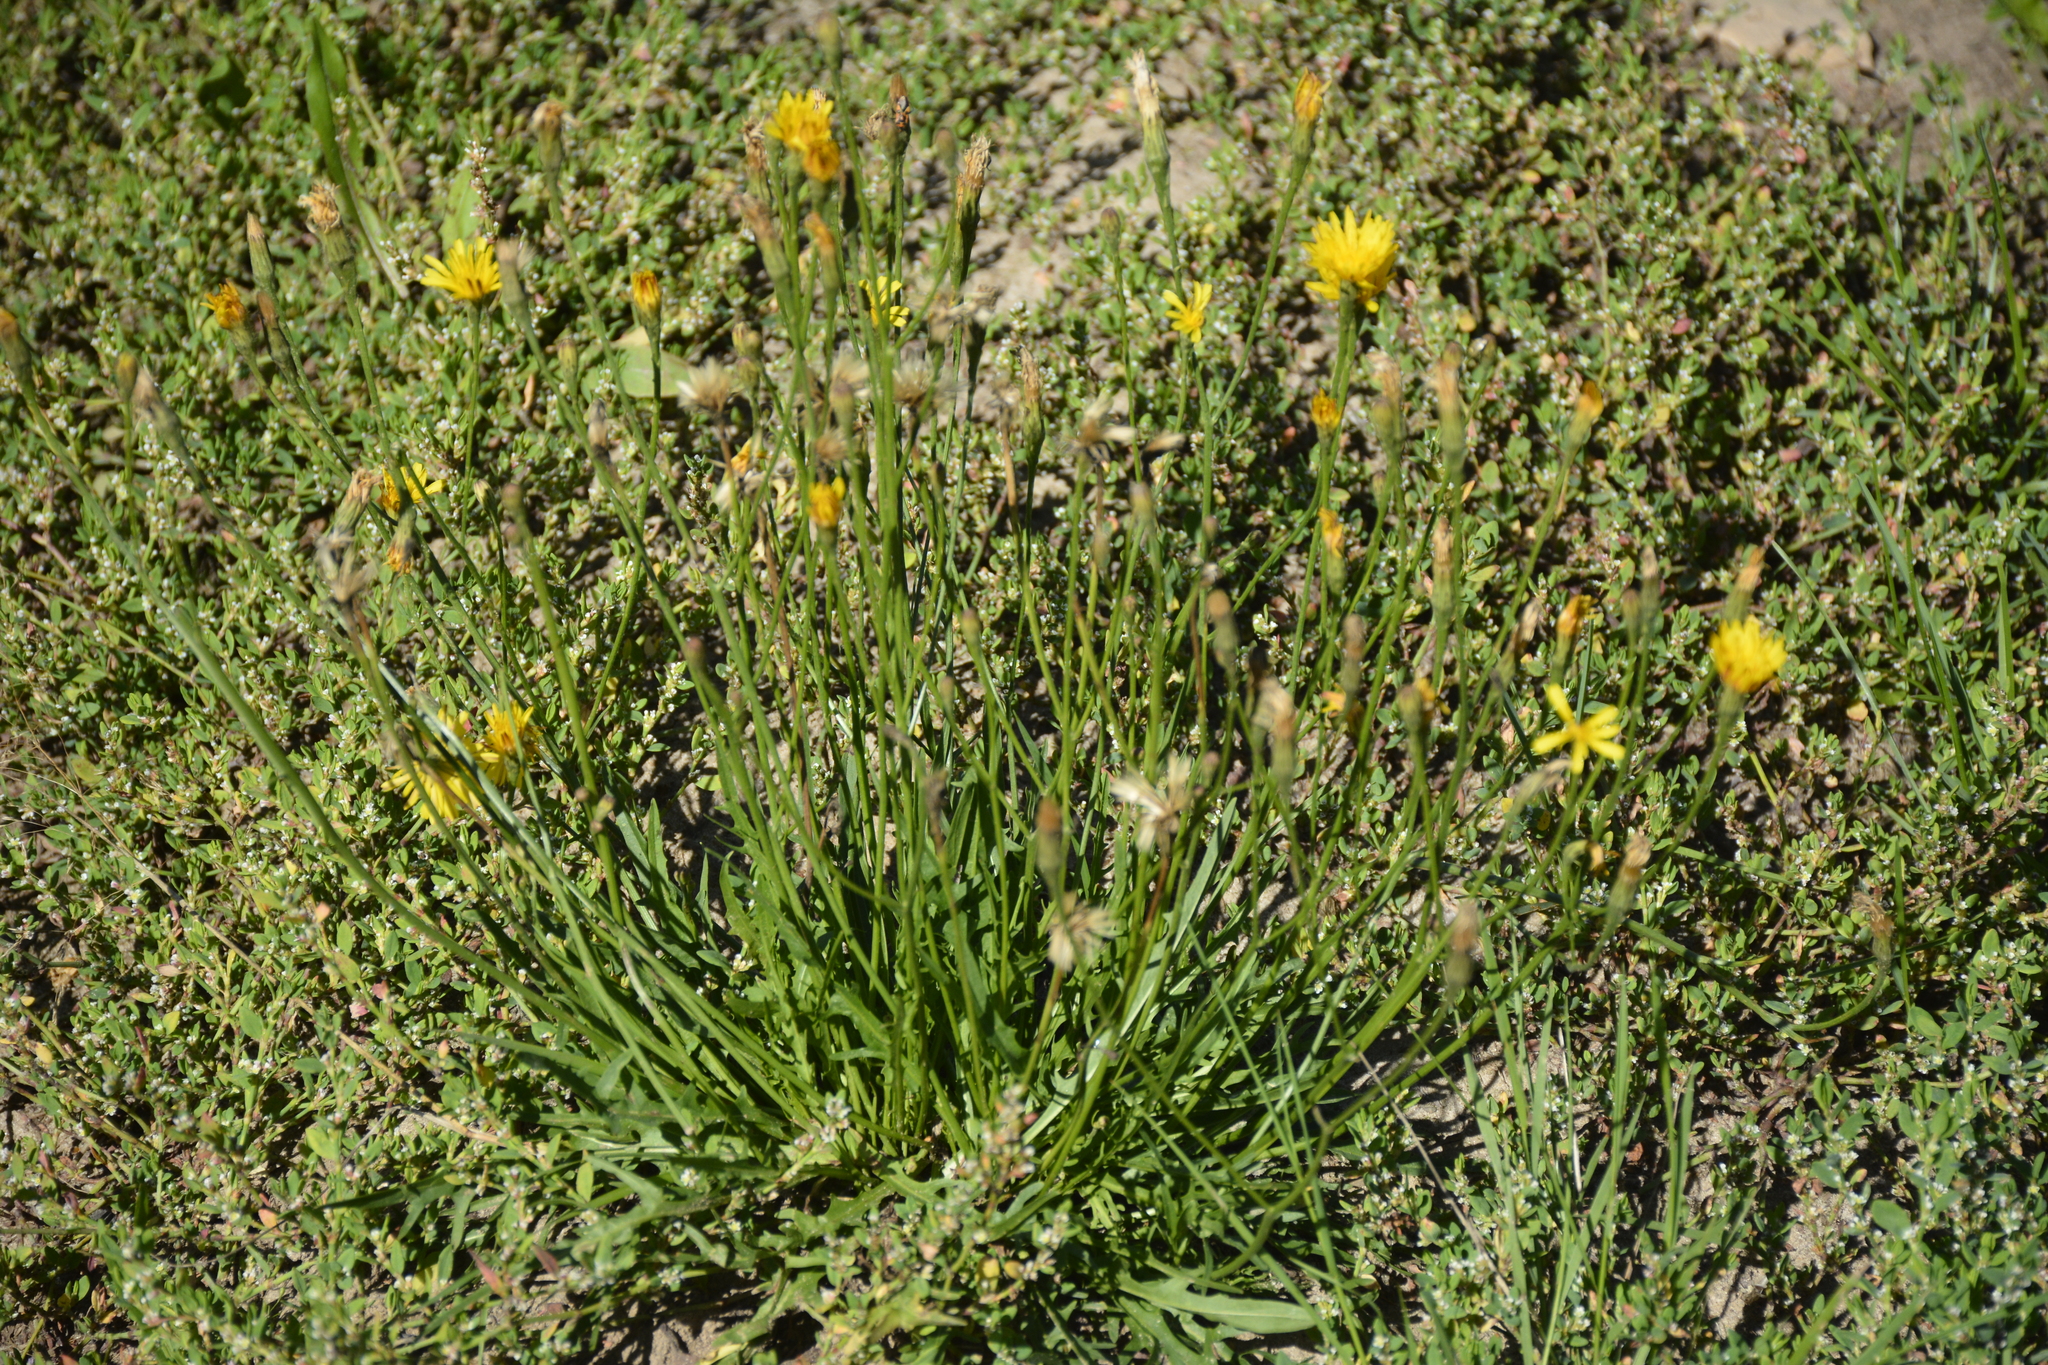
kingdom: Plantae
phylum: Tracheophyta
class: Magnoliopsida
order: Asterales
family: Asteraceae
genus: Scorzoneroides
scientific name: Scorzoneroides autumnalis
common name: Autumn hawkbit
